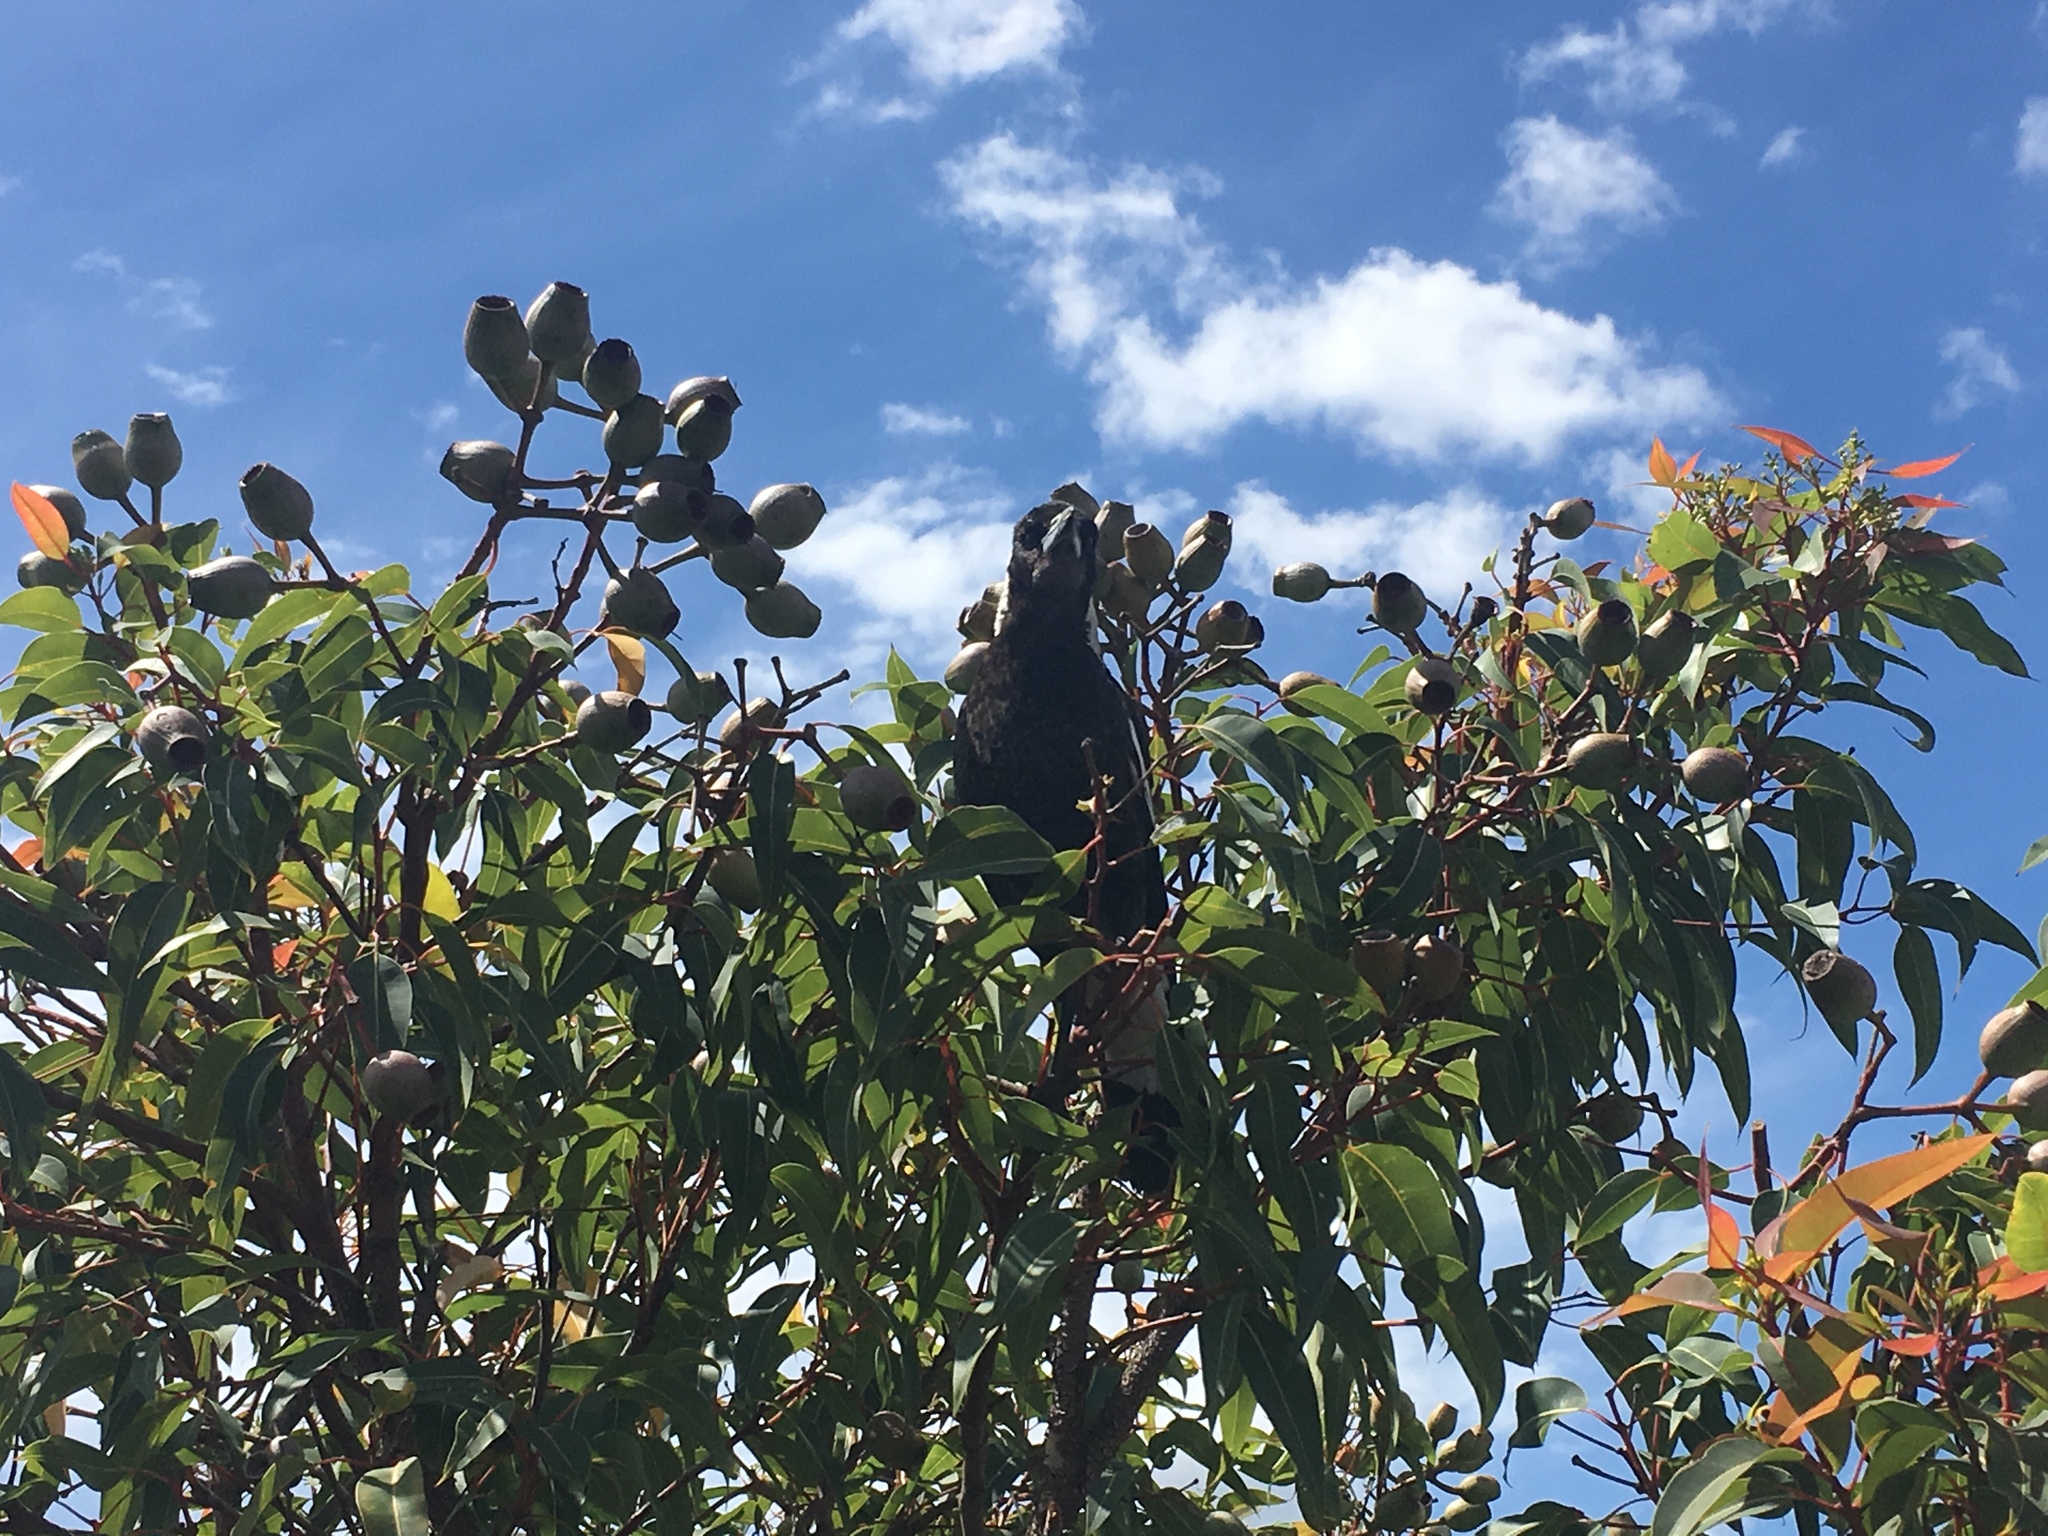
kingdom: Animalia
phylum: Chordata
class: Aves
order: Passeriformes
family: Cracticidae
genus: Gymnorhina
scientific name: Gymnorhina tibicen
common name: Australian magpie
